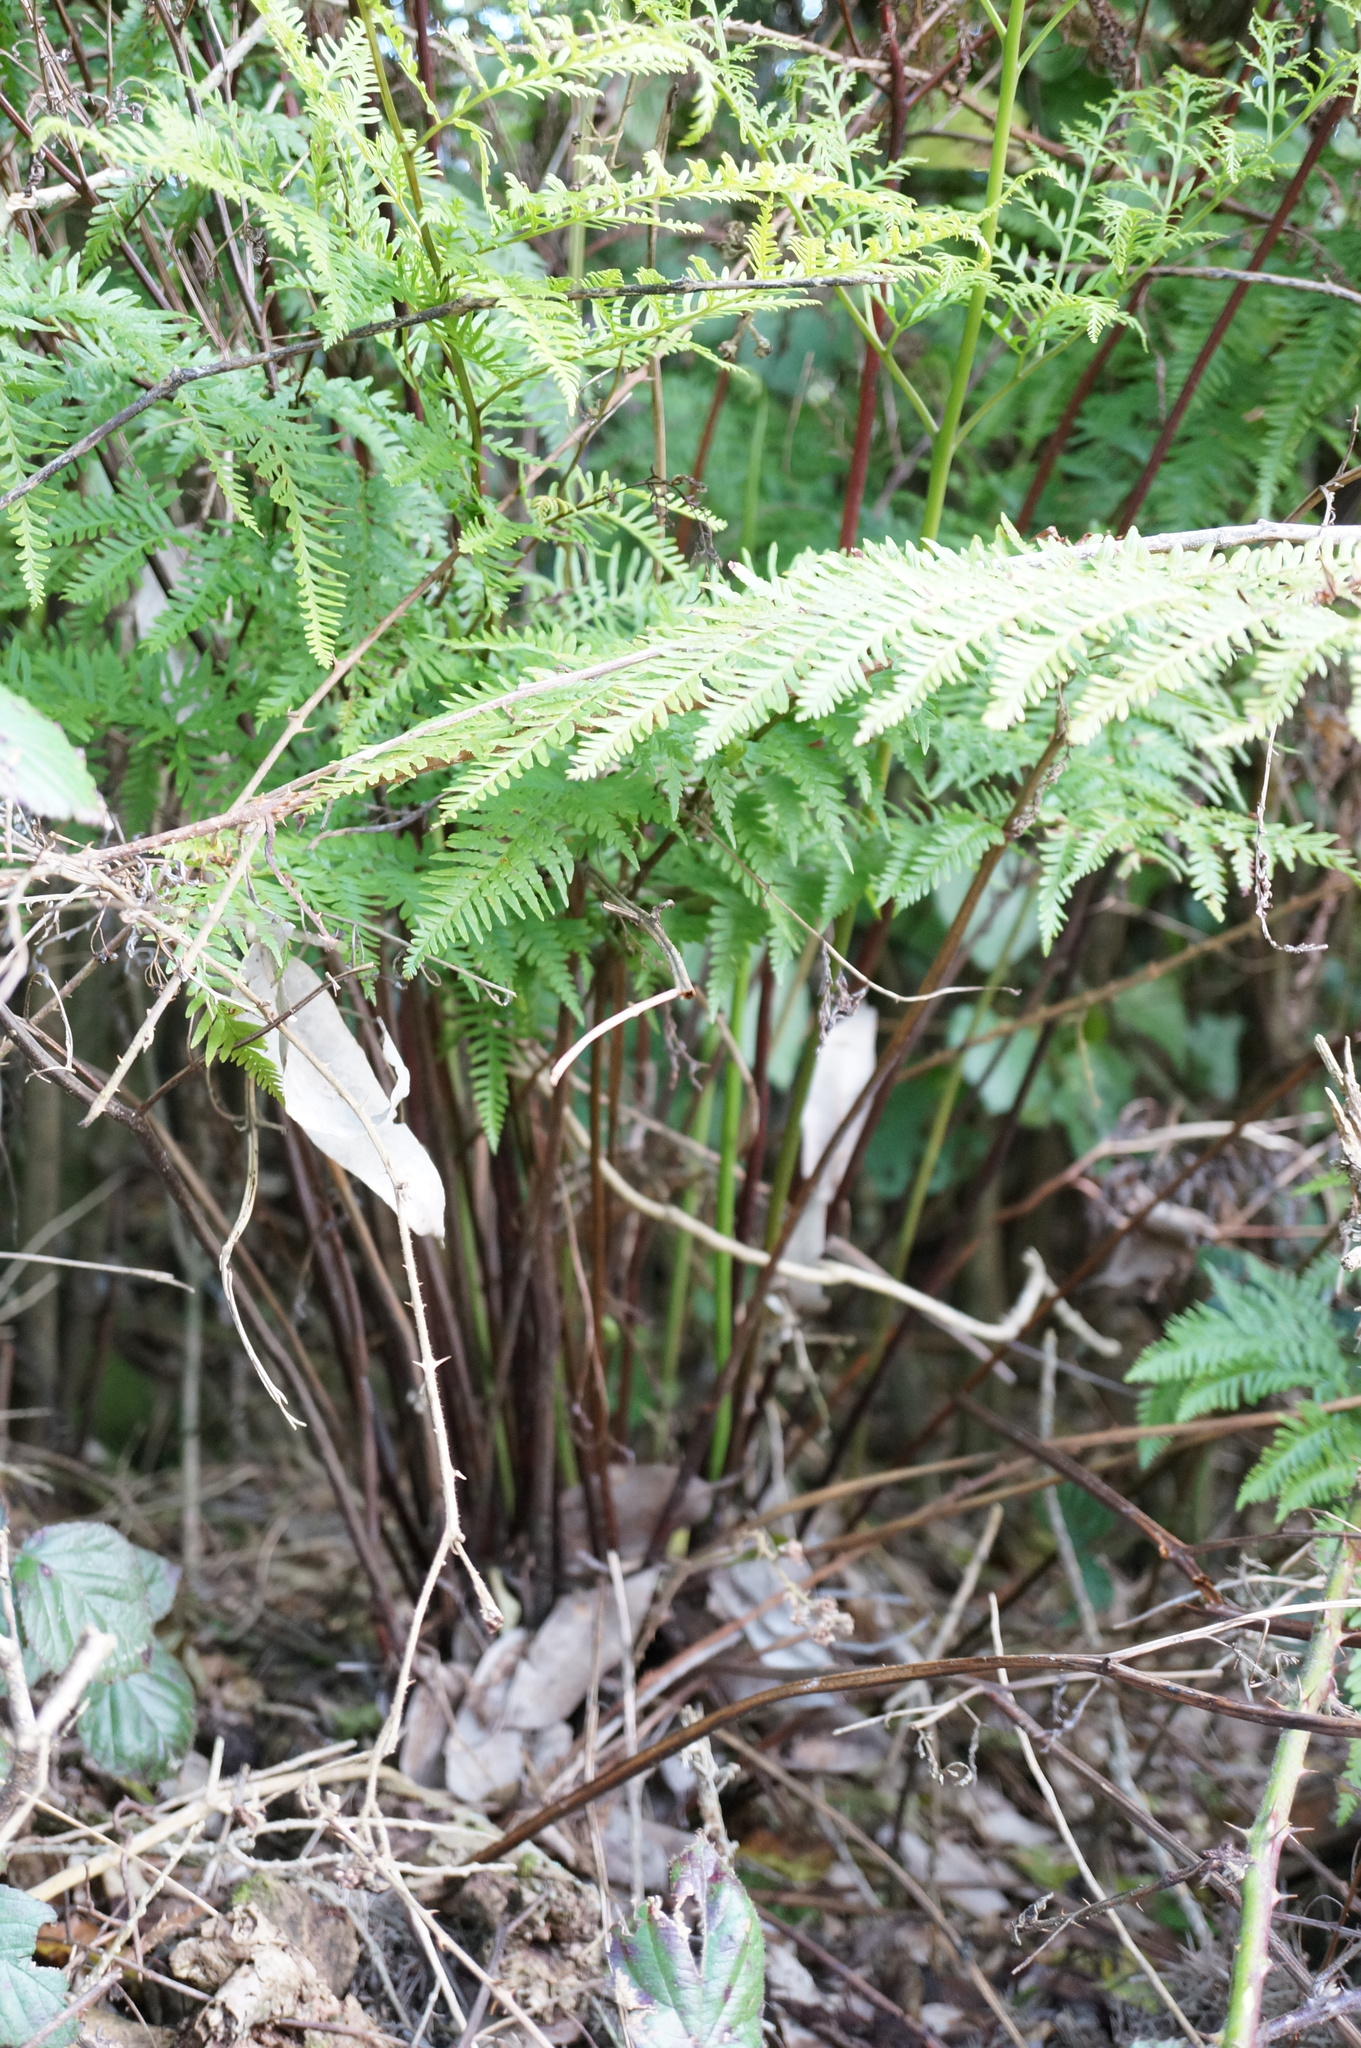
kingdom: Plantae
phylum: Tracheophyta
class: Polypodiopsida
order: Polypodiales
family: Pteridaceae
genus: Pteris
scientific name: Pteris tremula
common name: Australian brake
